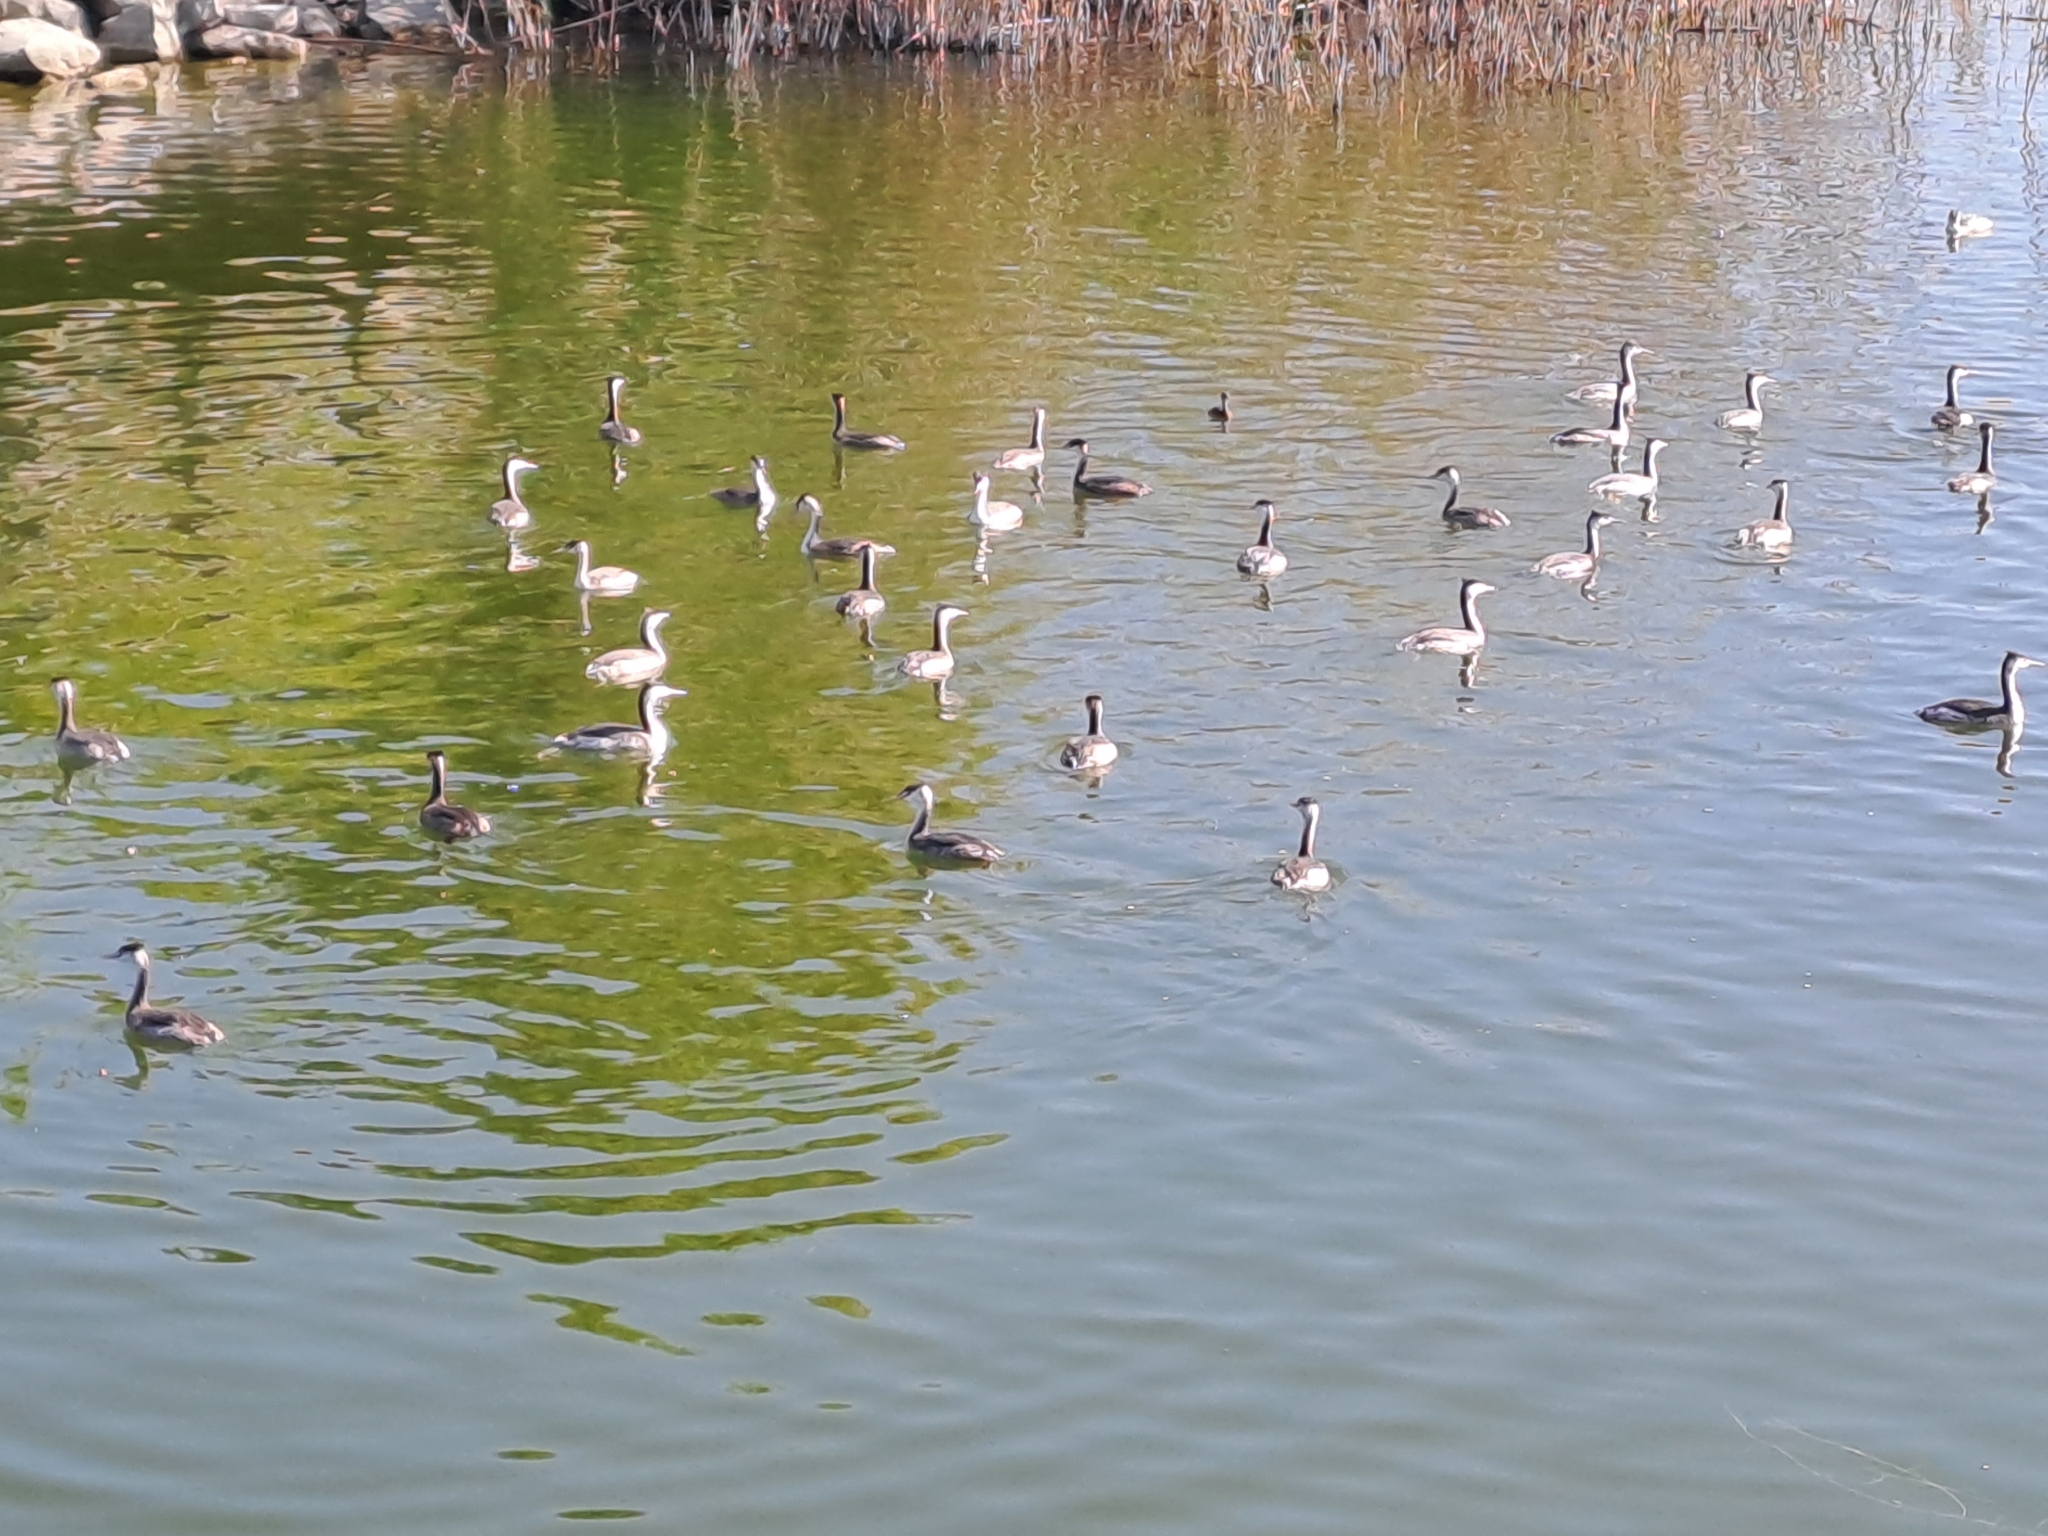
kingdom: Animalia
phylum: Chordata
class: Aves
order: Podicipediformes
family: Podicipedidae
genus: Podiceps
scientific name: Podiceps cristatus
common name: Great crested grebe
